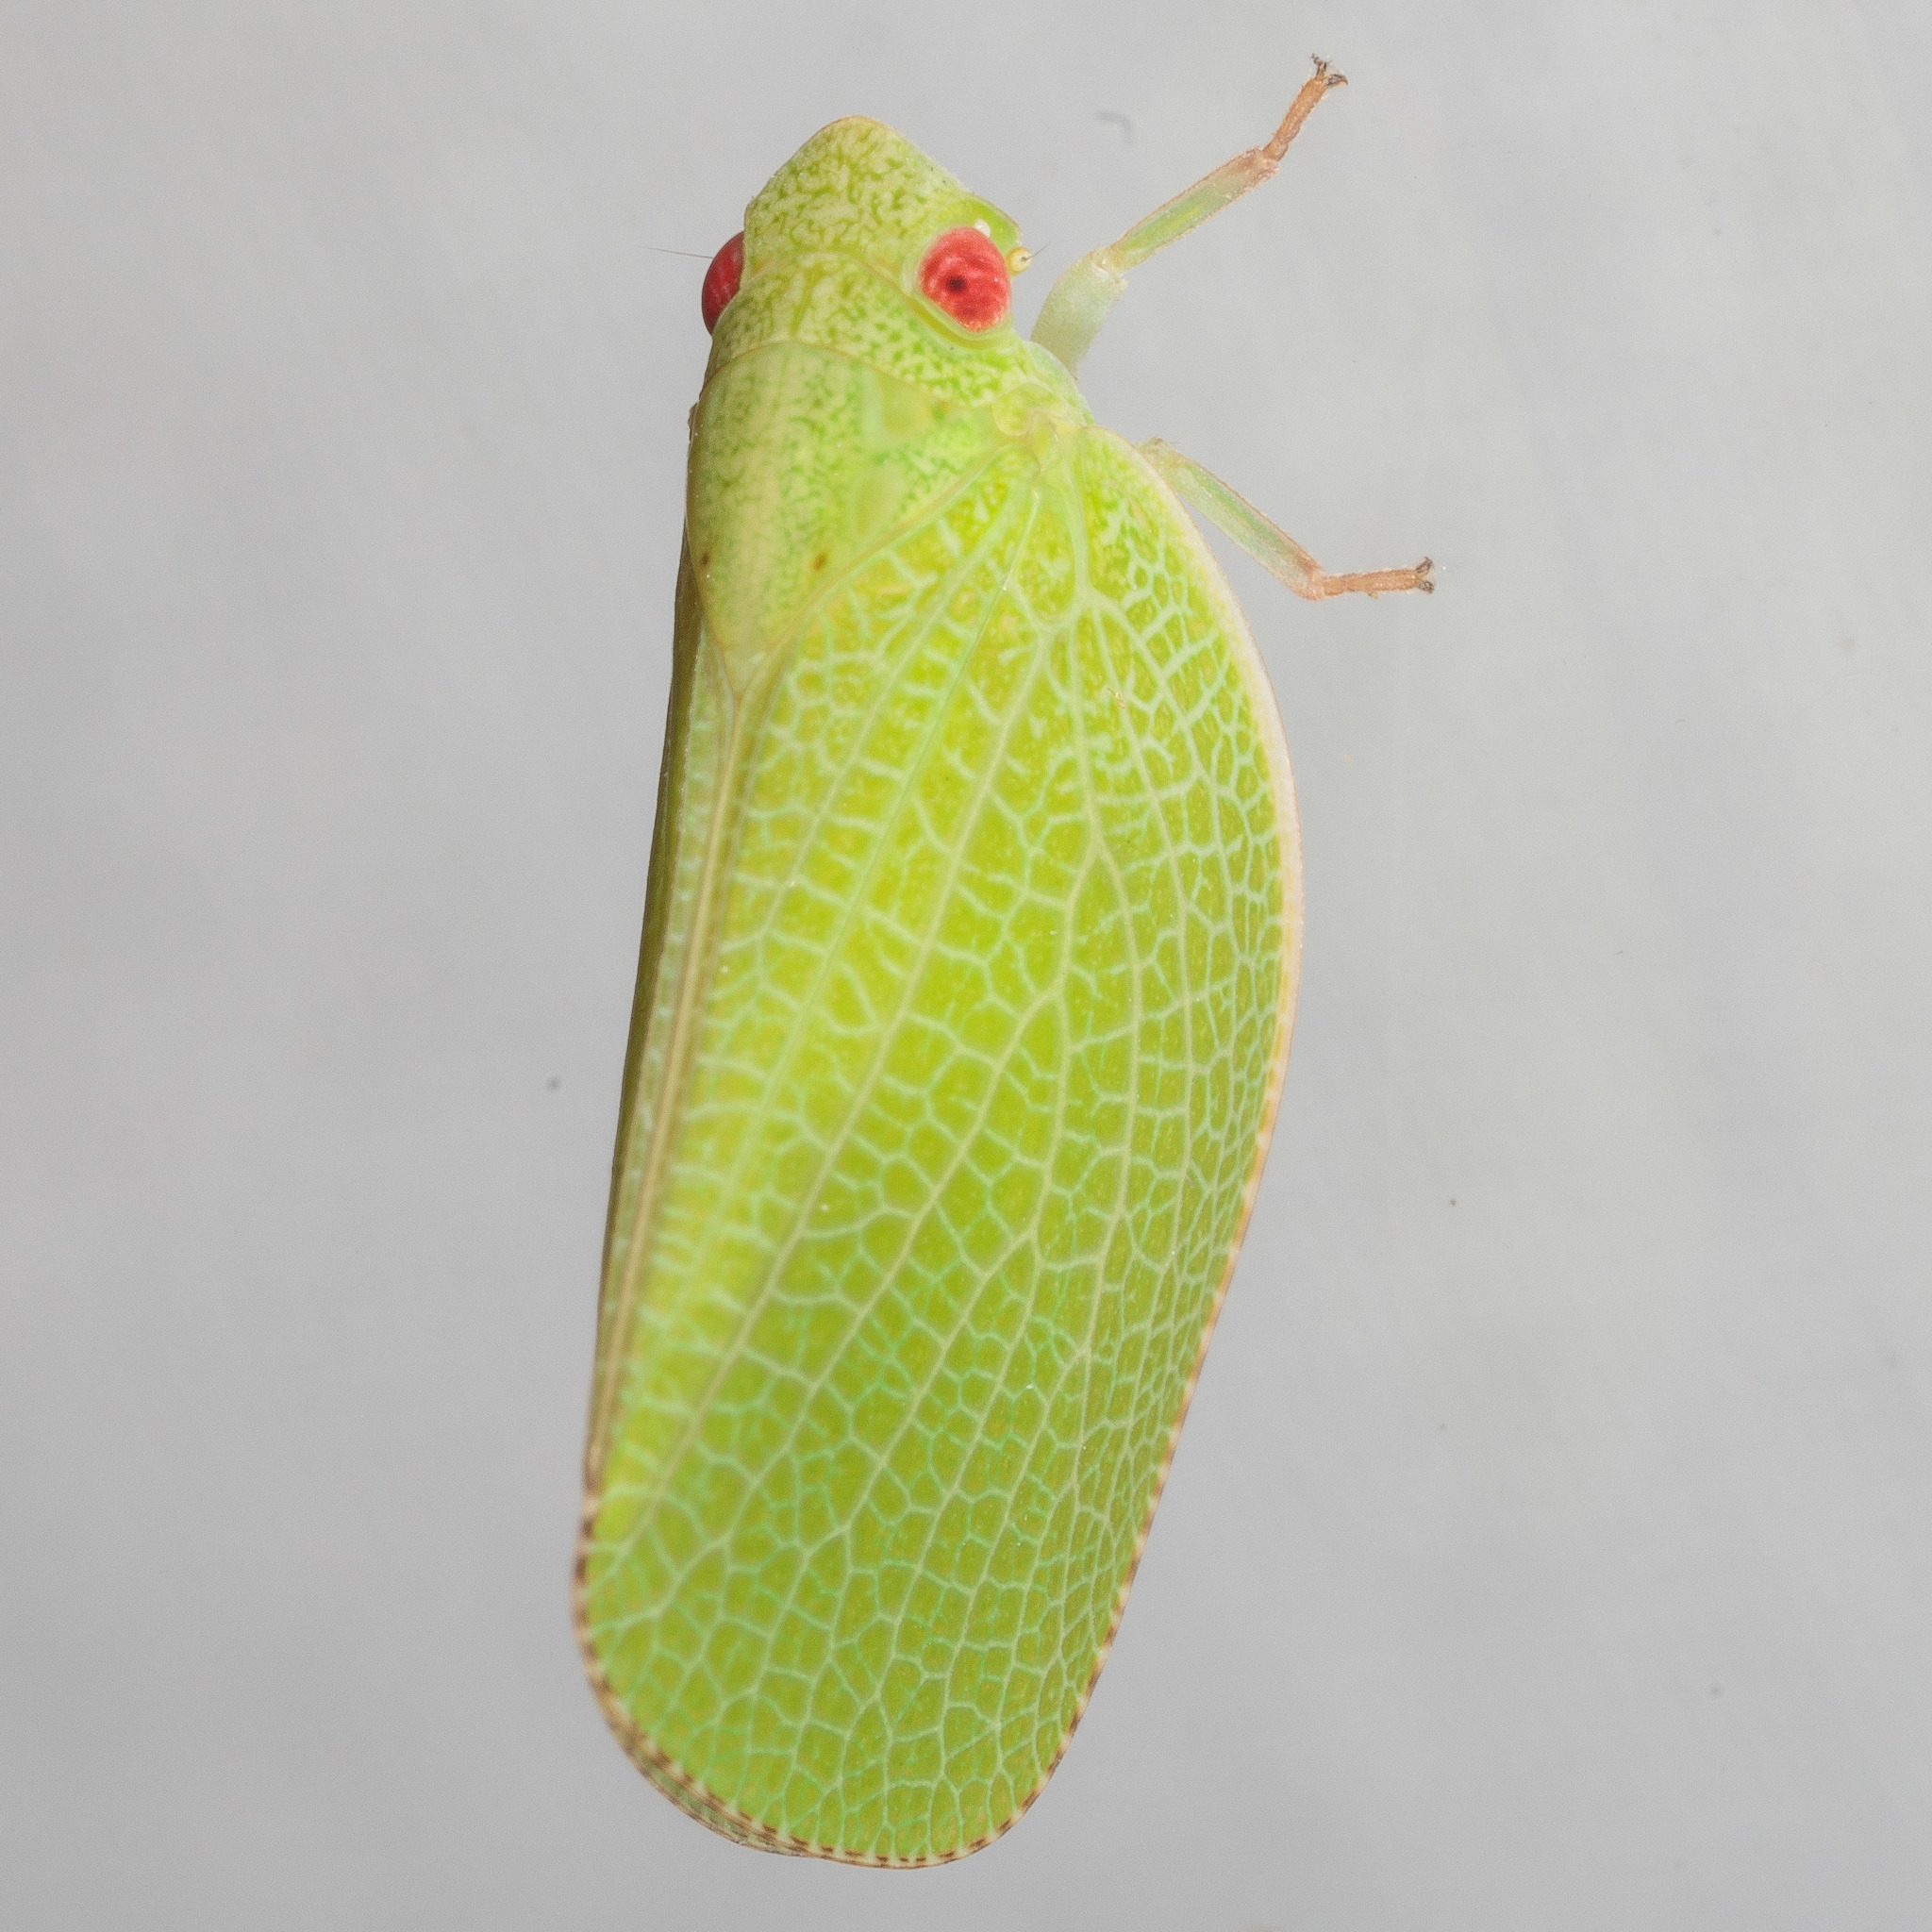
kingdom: Animalia
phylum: Arthropoda
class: Insecta
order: Hemiptera
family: Acanaloniidae
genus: Acanalonia
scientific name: Acanalonia conica
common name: Green cone-headed planthopper
